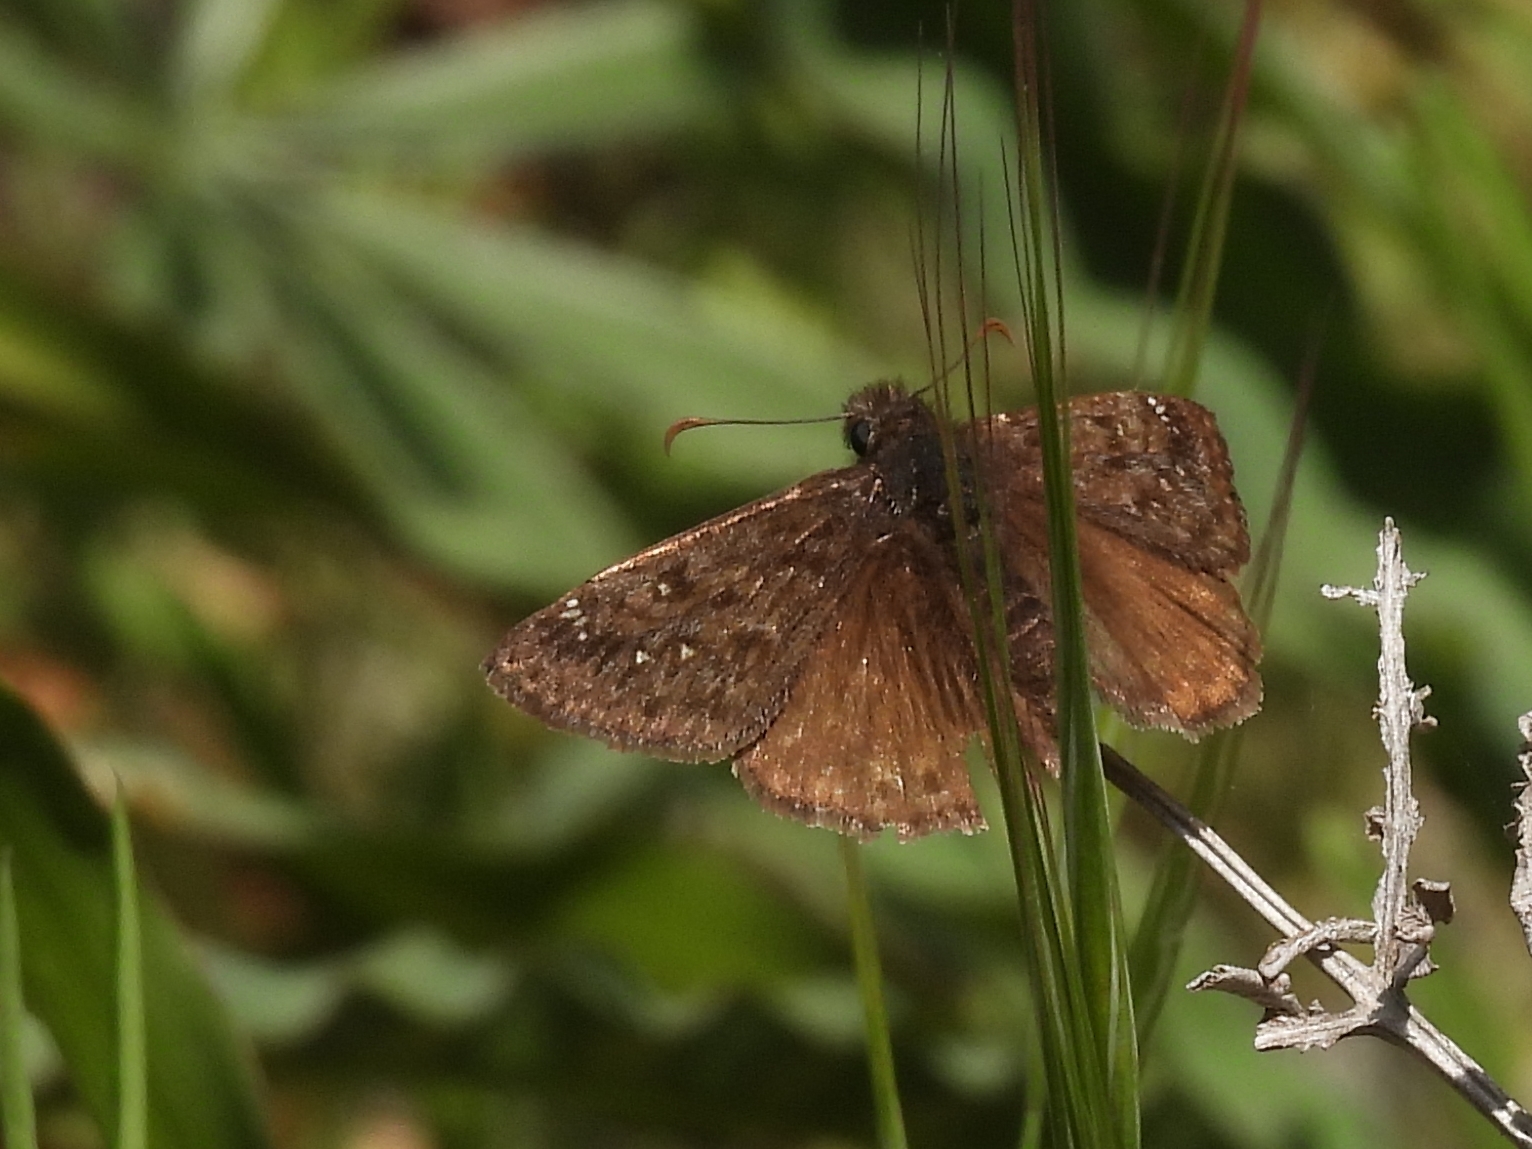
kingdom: Animalia
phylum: Arthropoda
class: Insecta
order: Lepidoptera
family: Hesperiidae
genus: Erynnis
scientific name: Erynnis propertius
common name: Propertius duskywing
